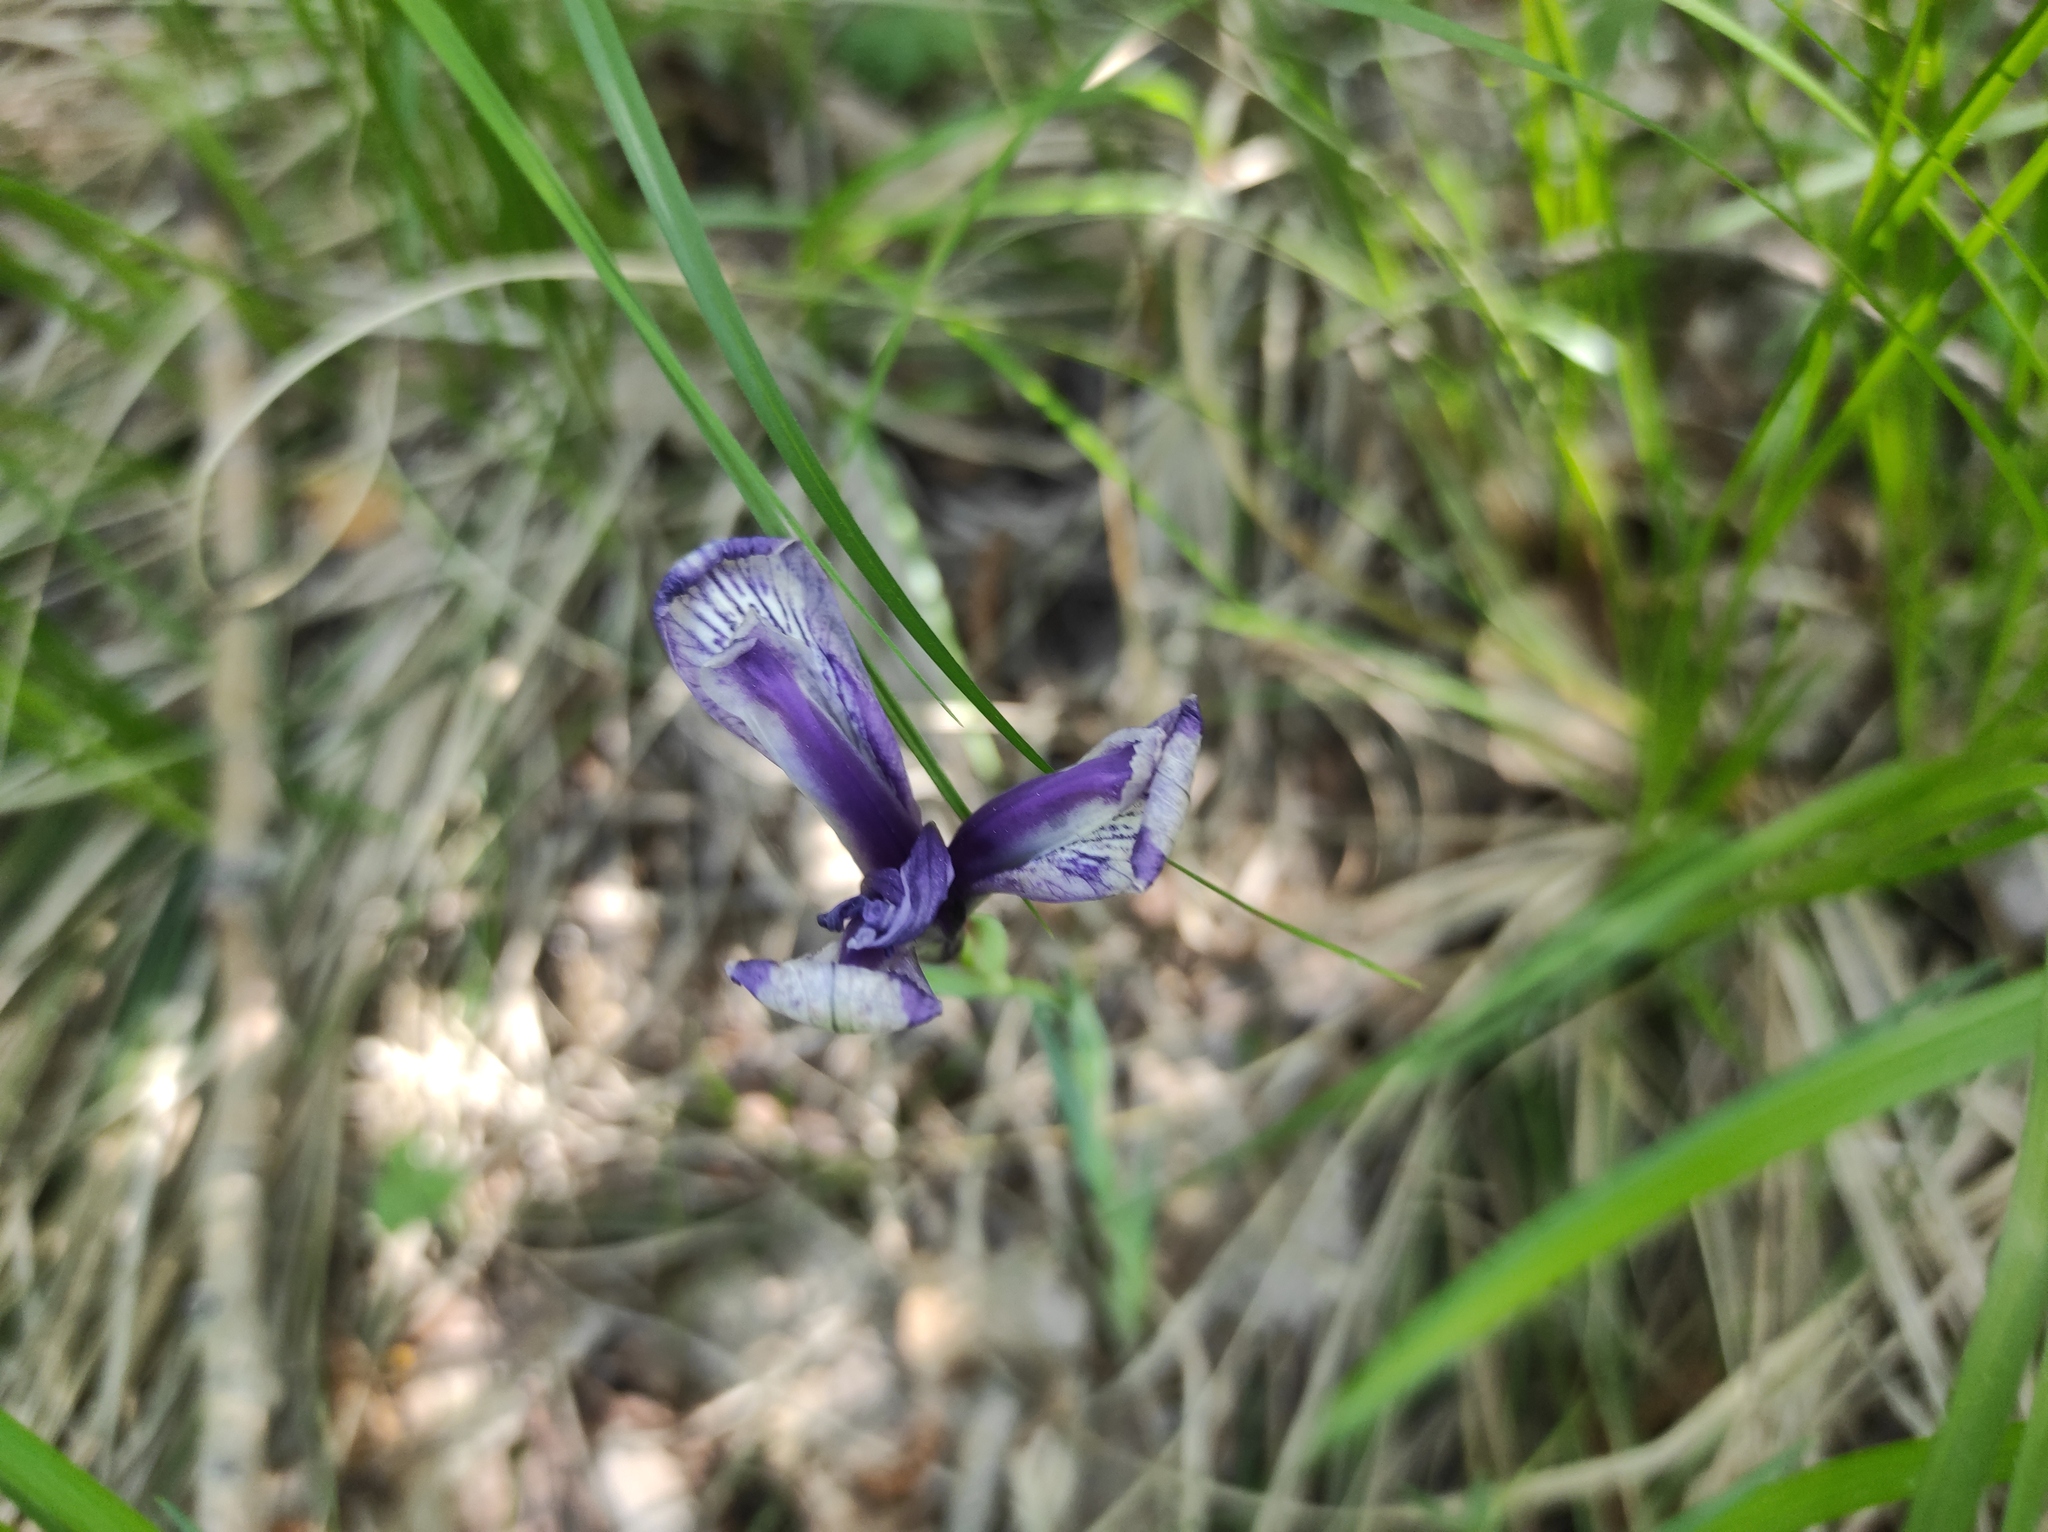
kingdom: Plantae
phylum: Tracheophyta
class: Liliopsida
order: Asparagales
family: Iridaceae
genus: Iris
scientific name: Iris ruthenica
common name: Purple-bract iris
